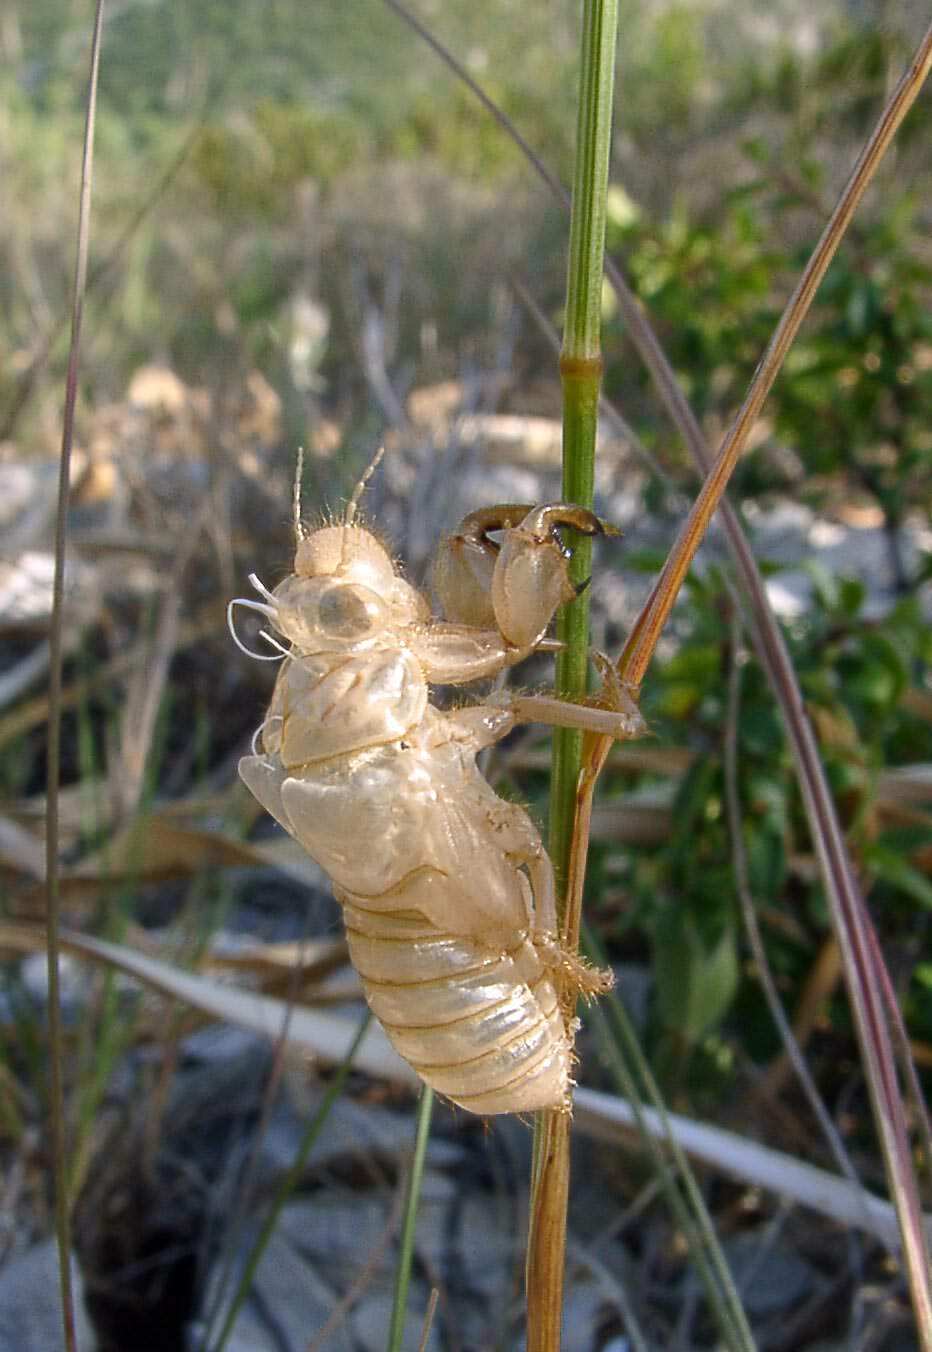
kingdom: Animalia
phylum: Arthropoda
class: Insecta
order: Hemiptera
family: Cicadidae
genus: Cicada
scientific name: Cicada orni
